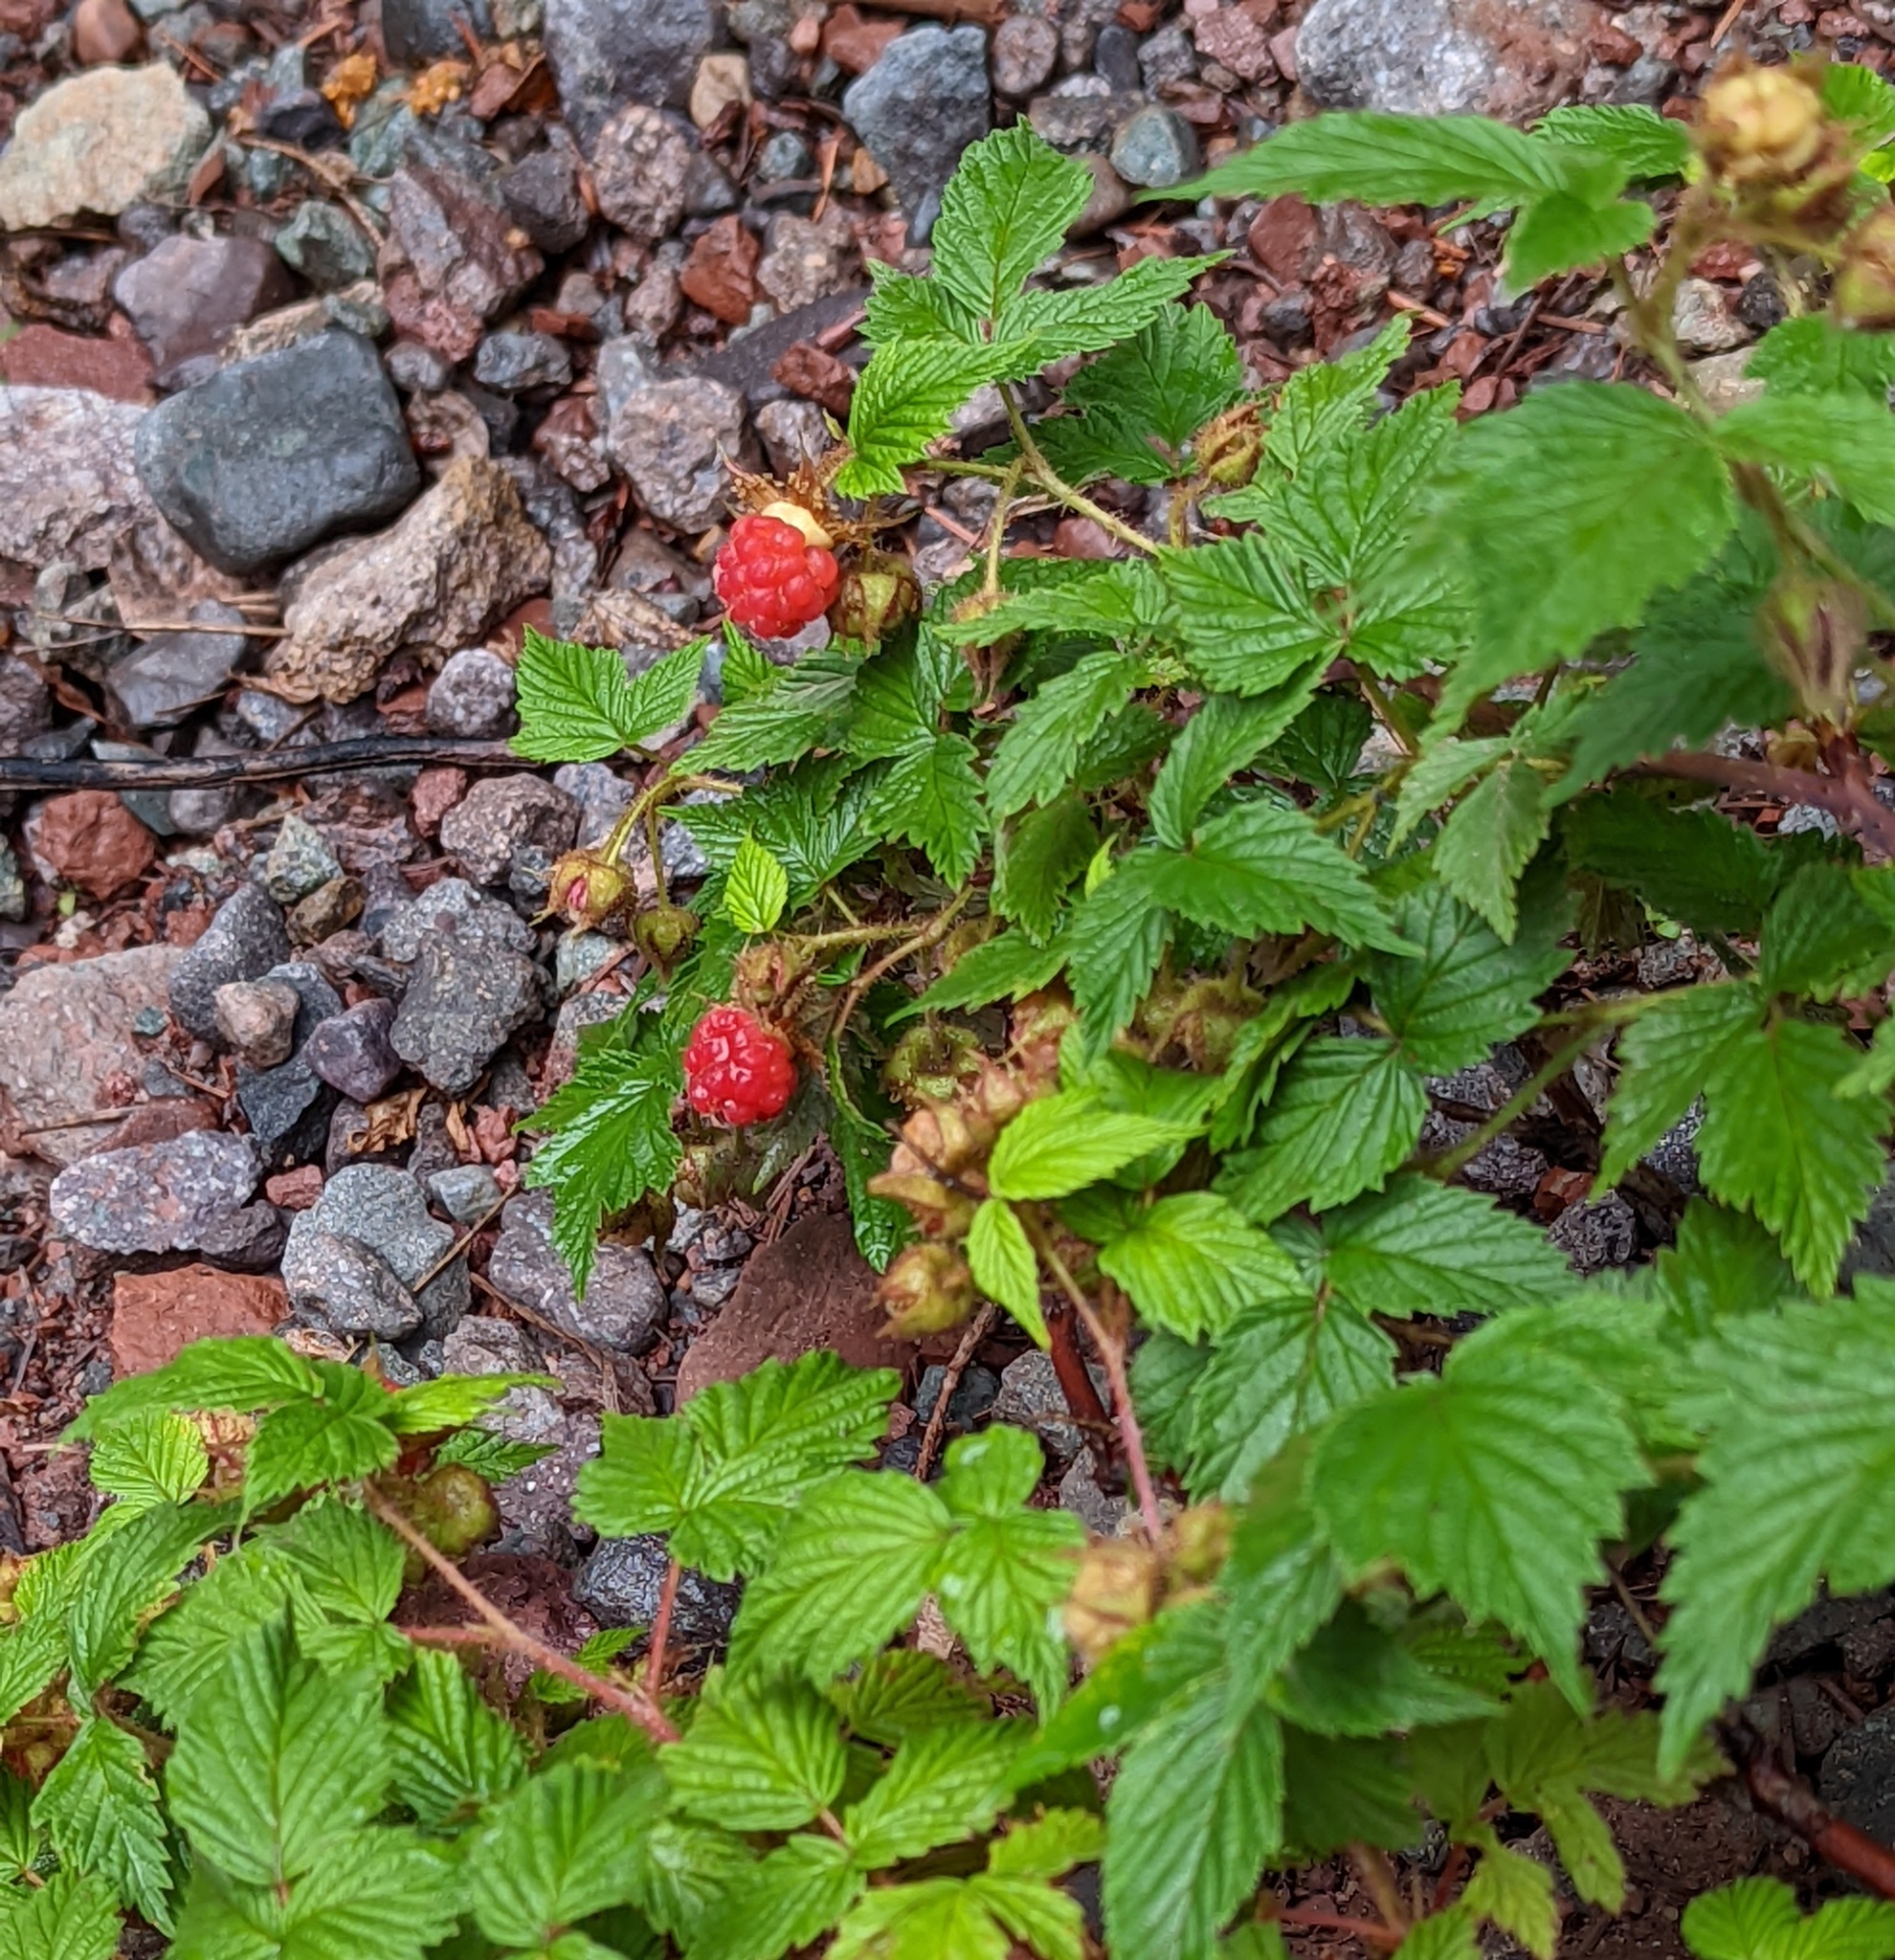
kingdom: Plantae
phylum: Tracheophyta
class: Magnoliopsida
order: Rosales
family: Rosaceae
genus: Rubus
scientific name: Rubus idaeus
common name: Raspberry
